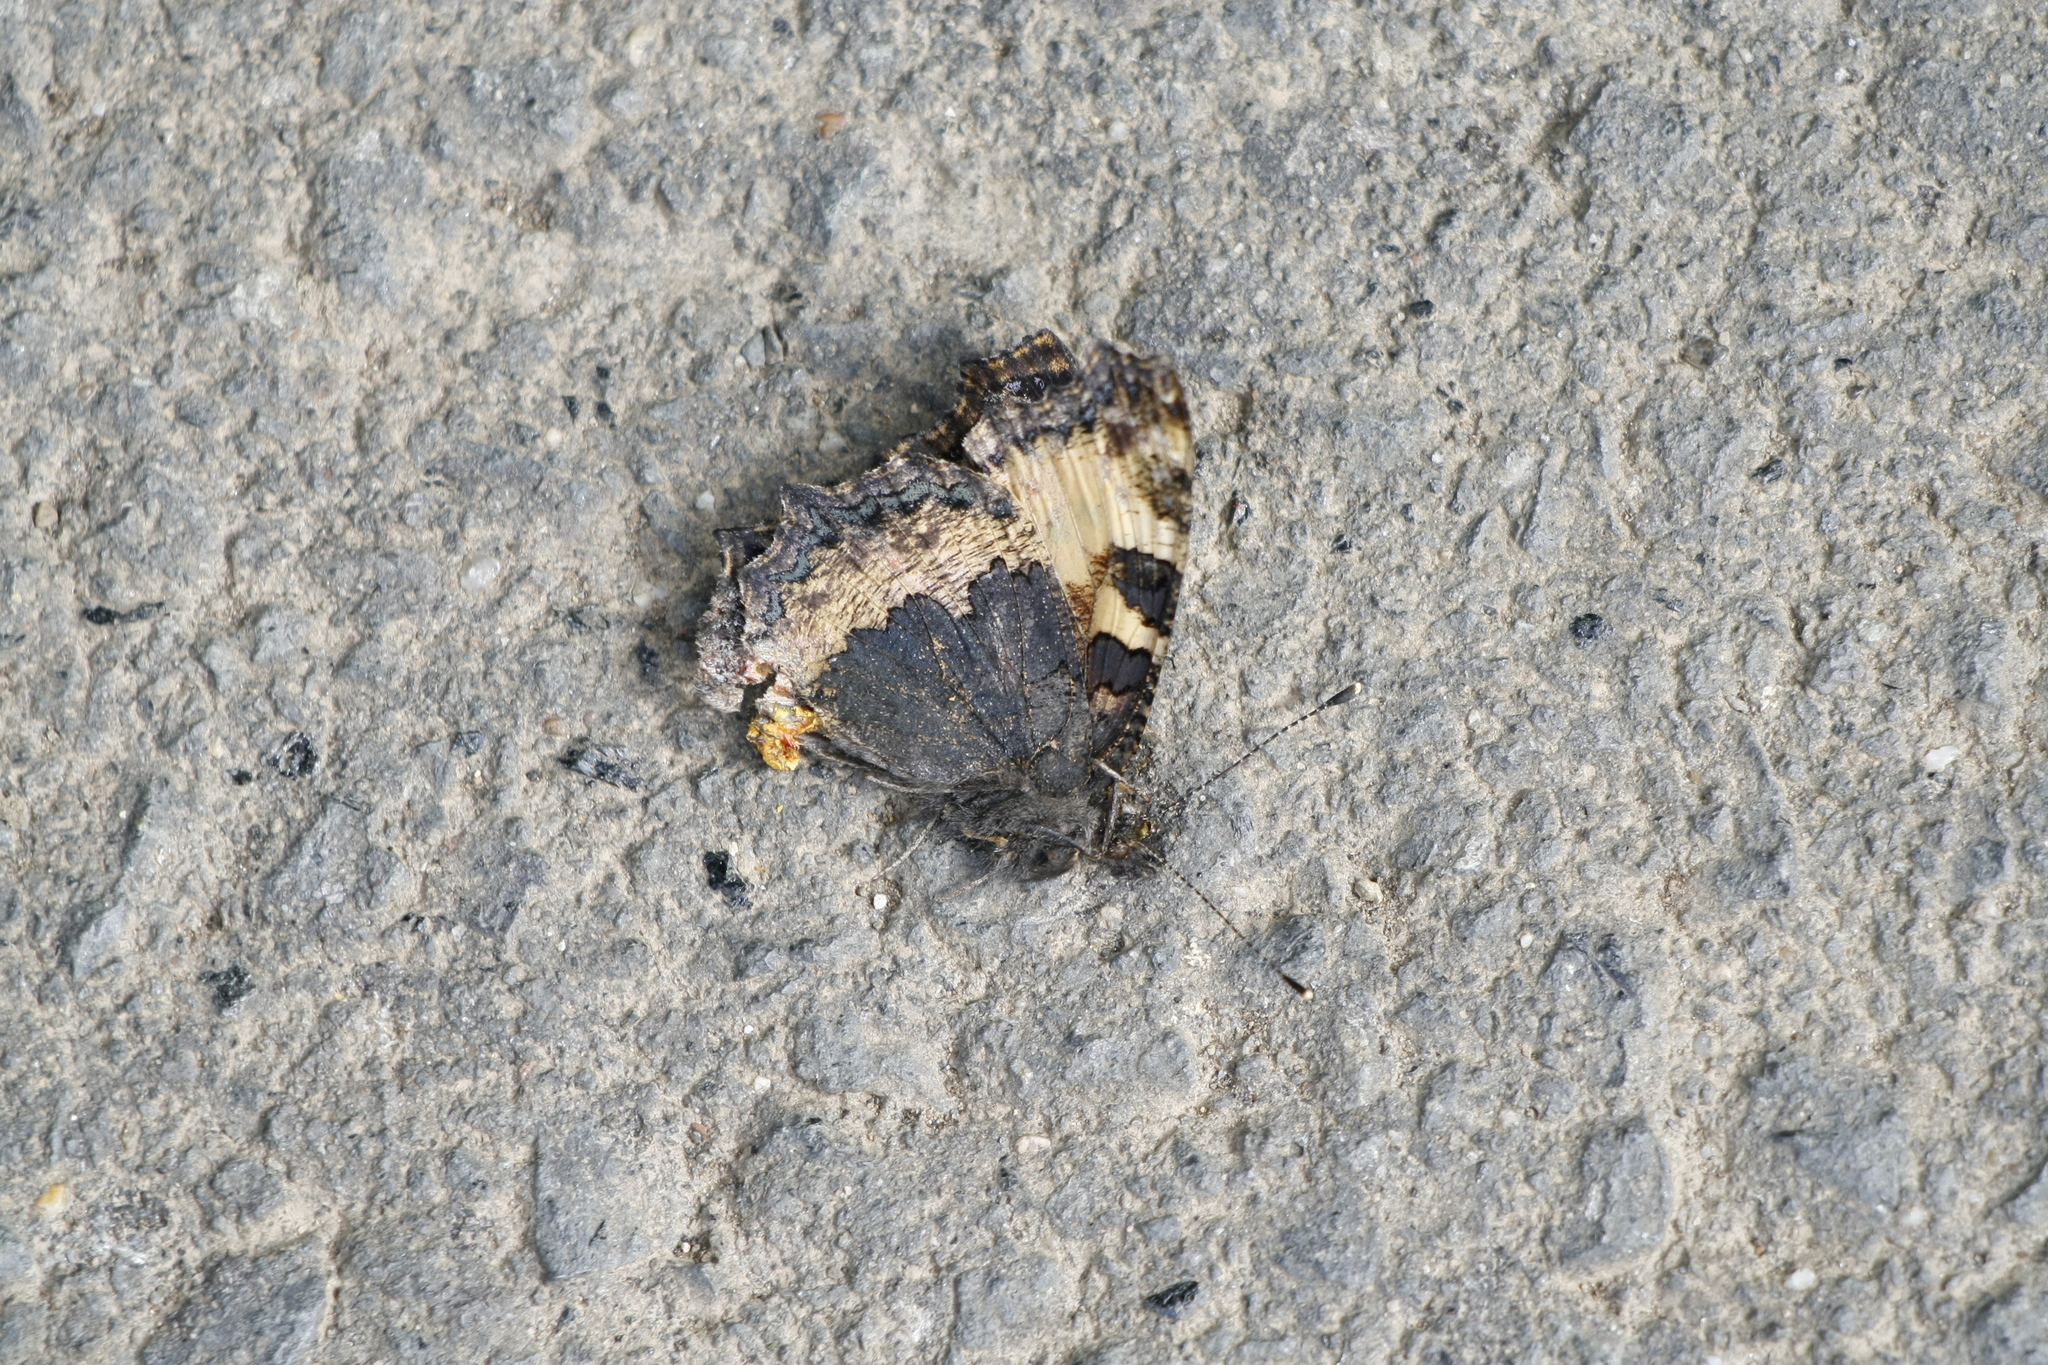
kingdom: Animalia
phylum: Arthropoda
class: Insecta
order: Lepidoptera
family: Nymphalidae
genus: Aglais
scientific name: Aglais urticae
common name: Small tortoiseshell
